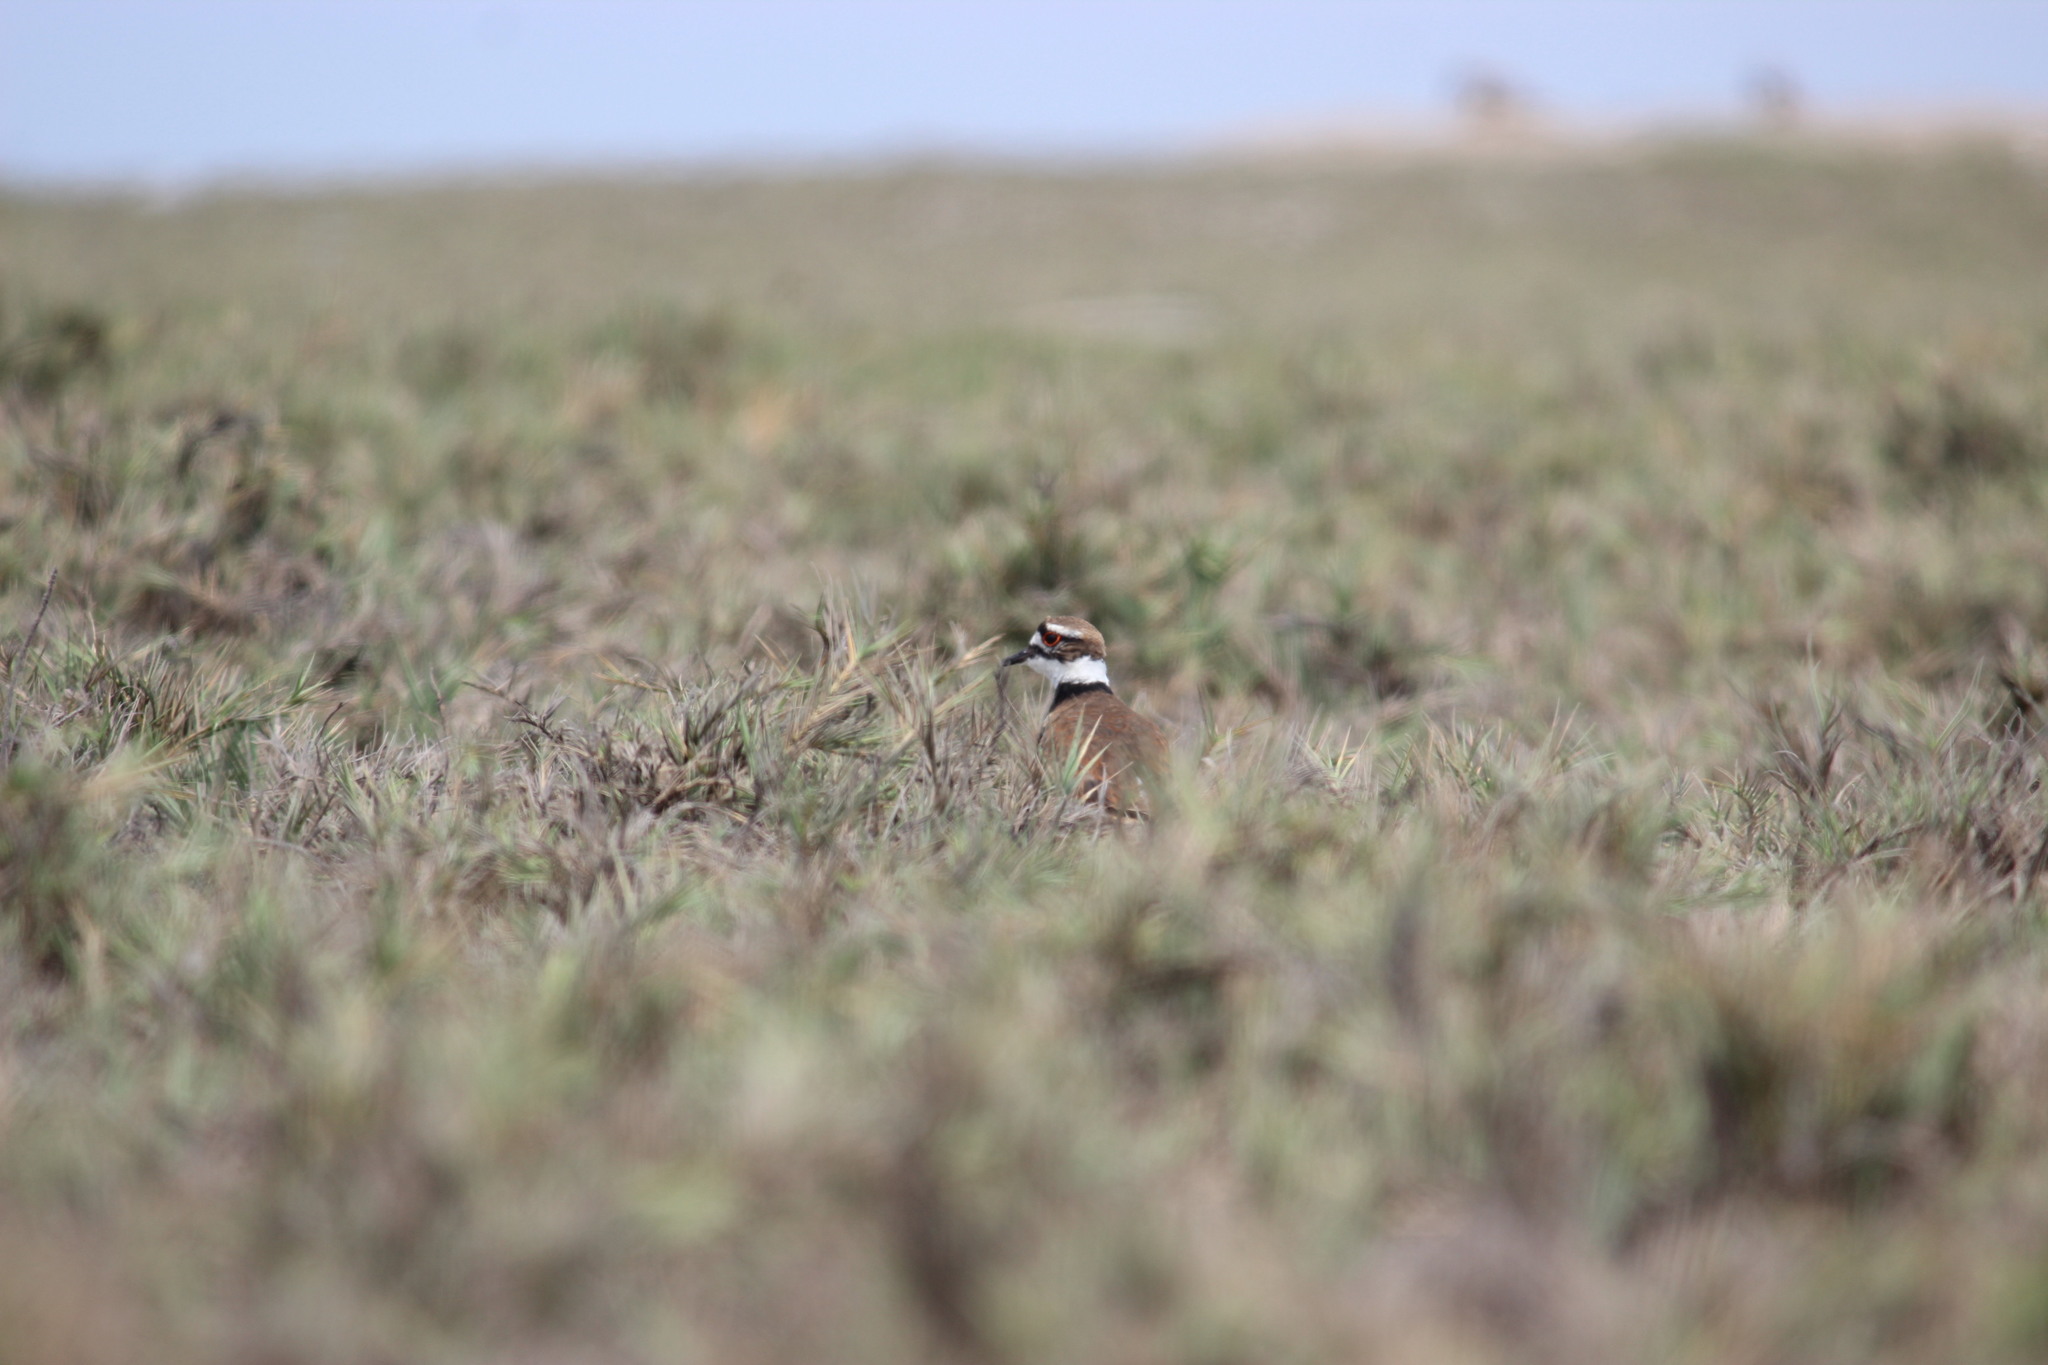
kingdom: Animalia
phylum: Chordata
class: Aves
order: Charadriiformes
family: Charadriidae
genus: Charadrius
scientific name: Charadrius vociferus
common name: Killdeer
